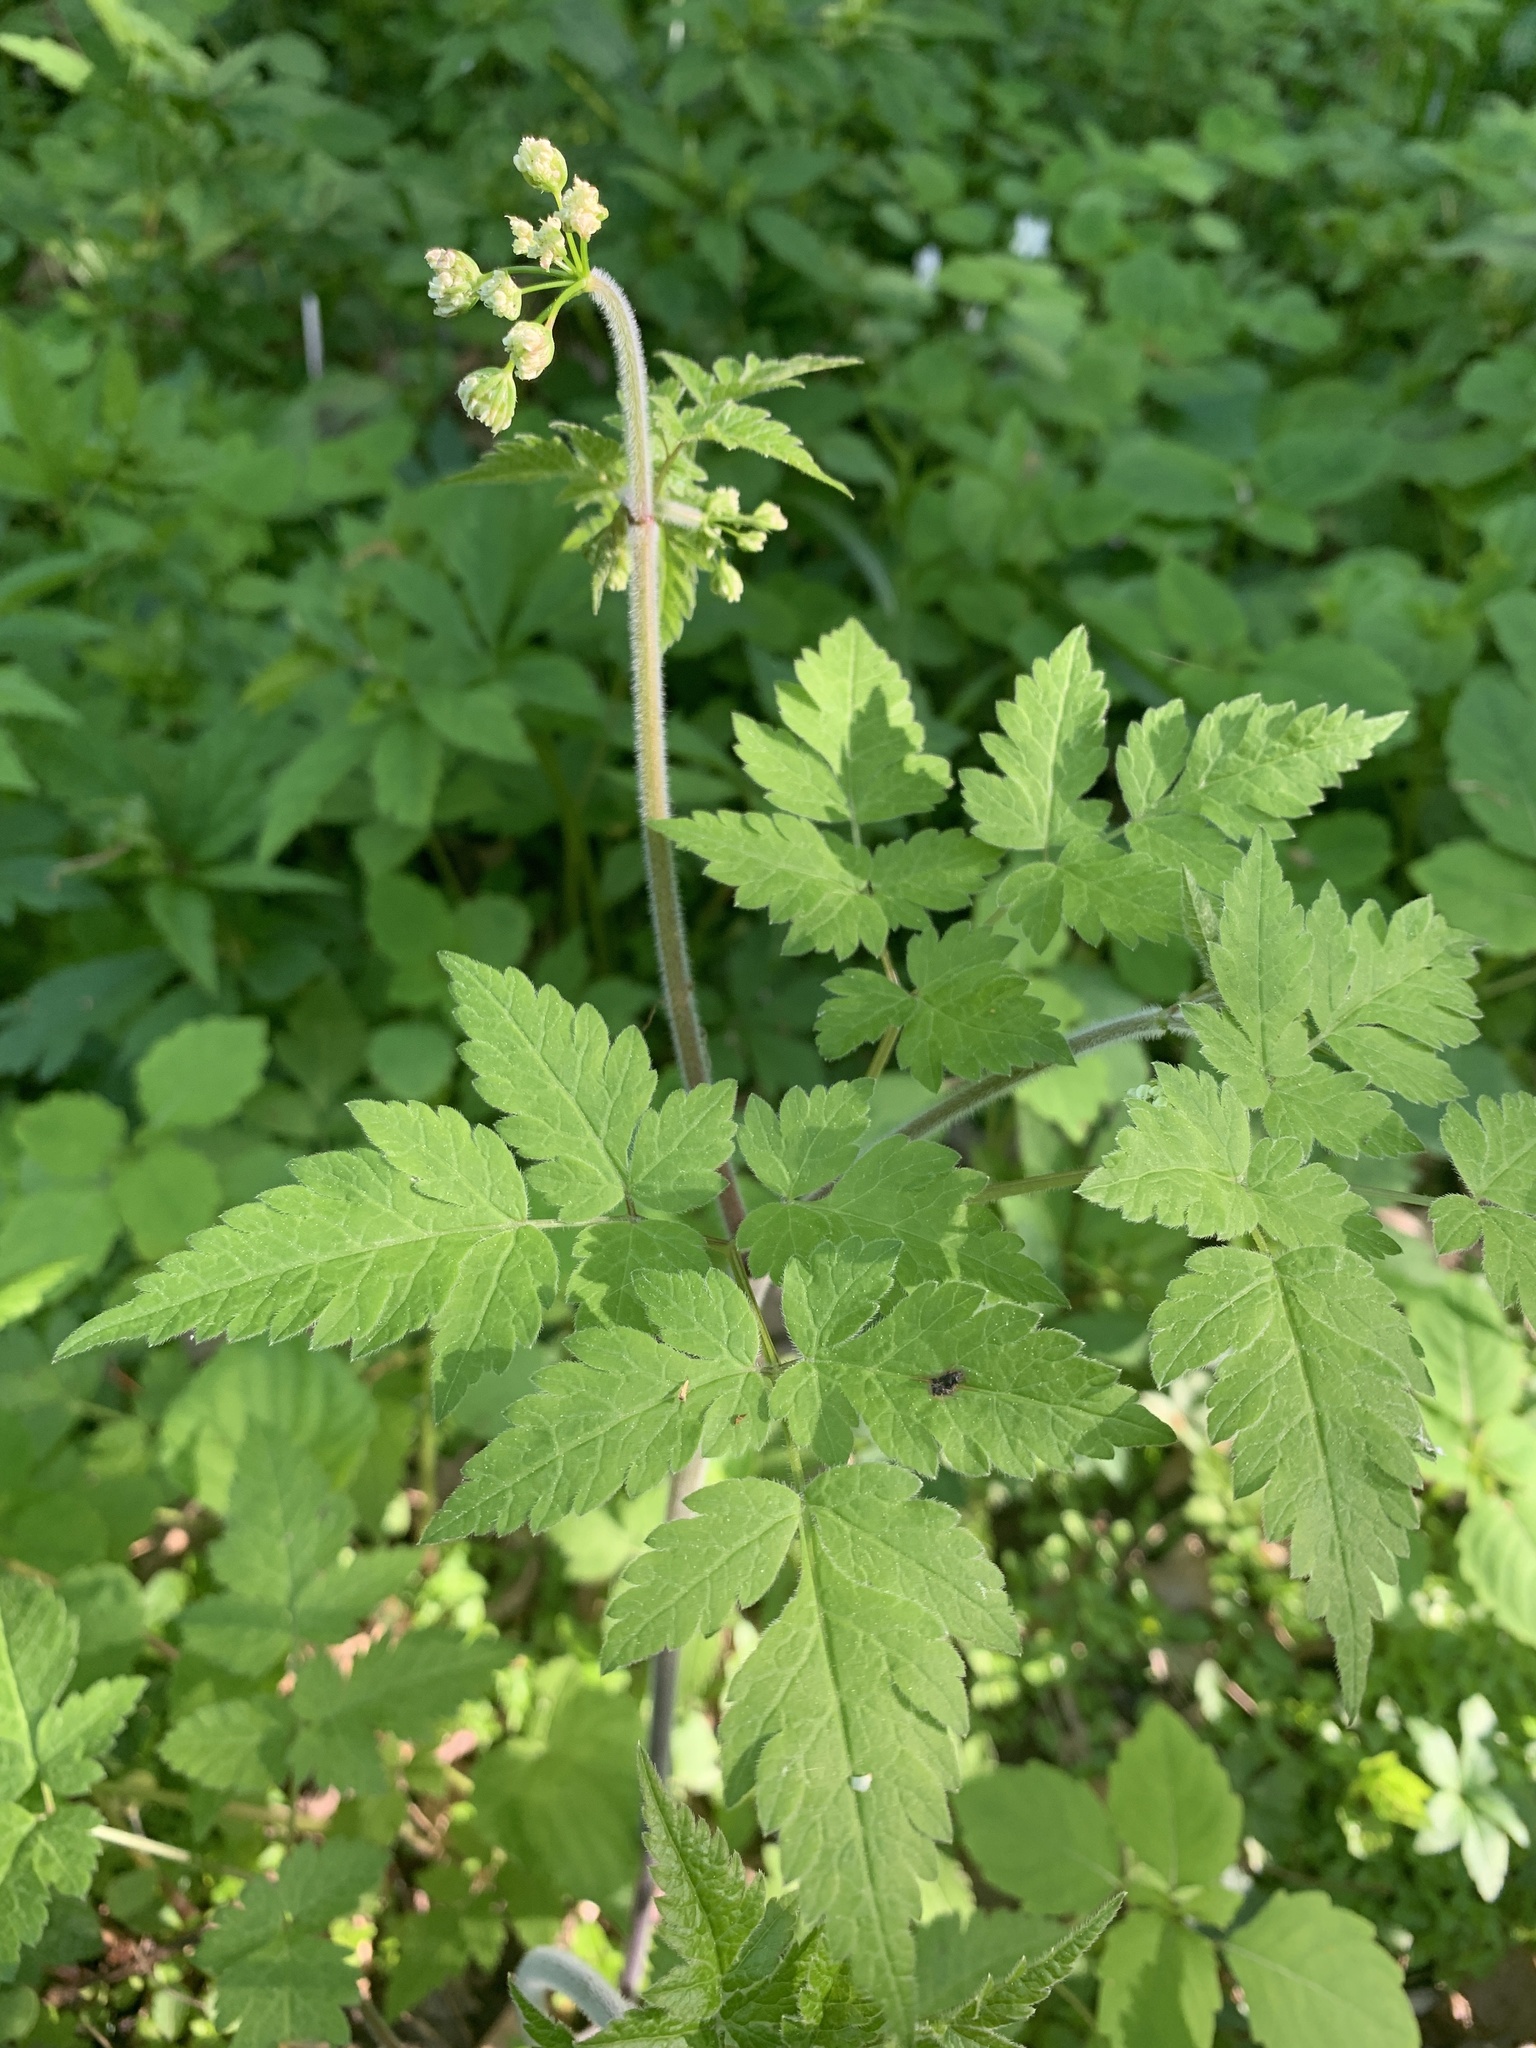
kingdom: Plantae
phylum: Tracheophyta
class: Magnoliopsida
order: Apiales
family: Apiaceae
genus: Osmorhiza
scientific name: Osmorhiza longistylis
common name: Smooth sweet cicely
